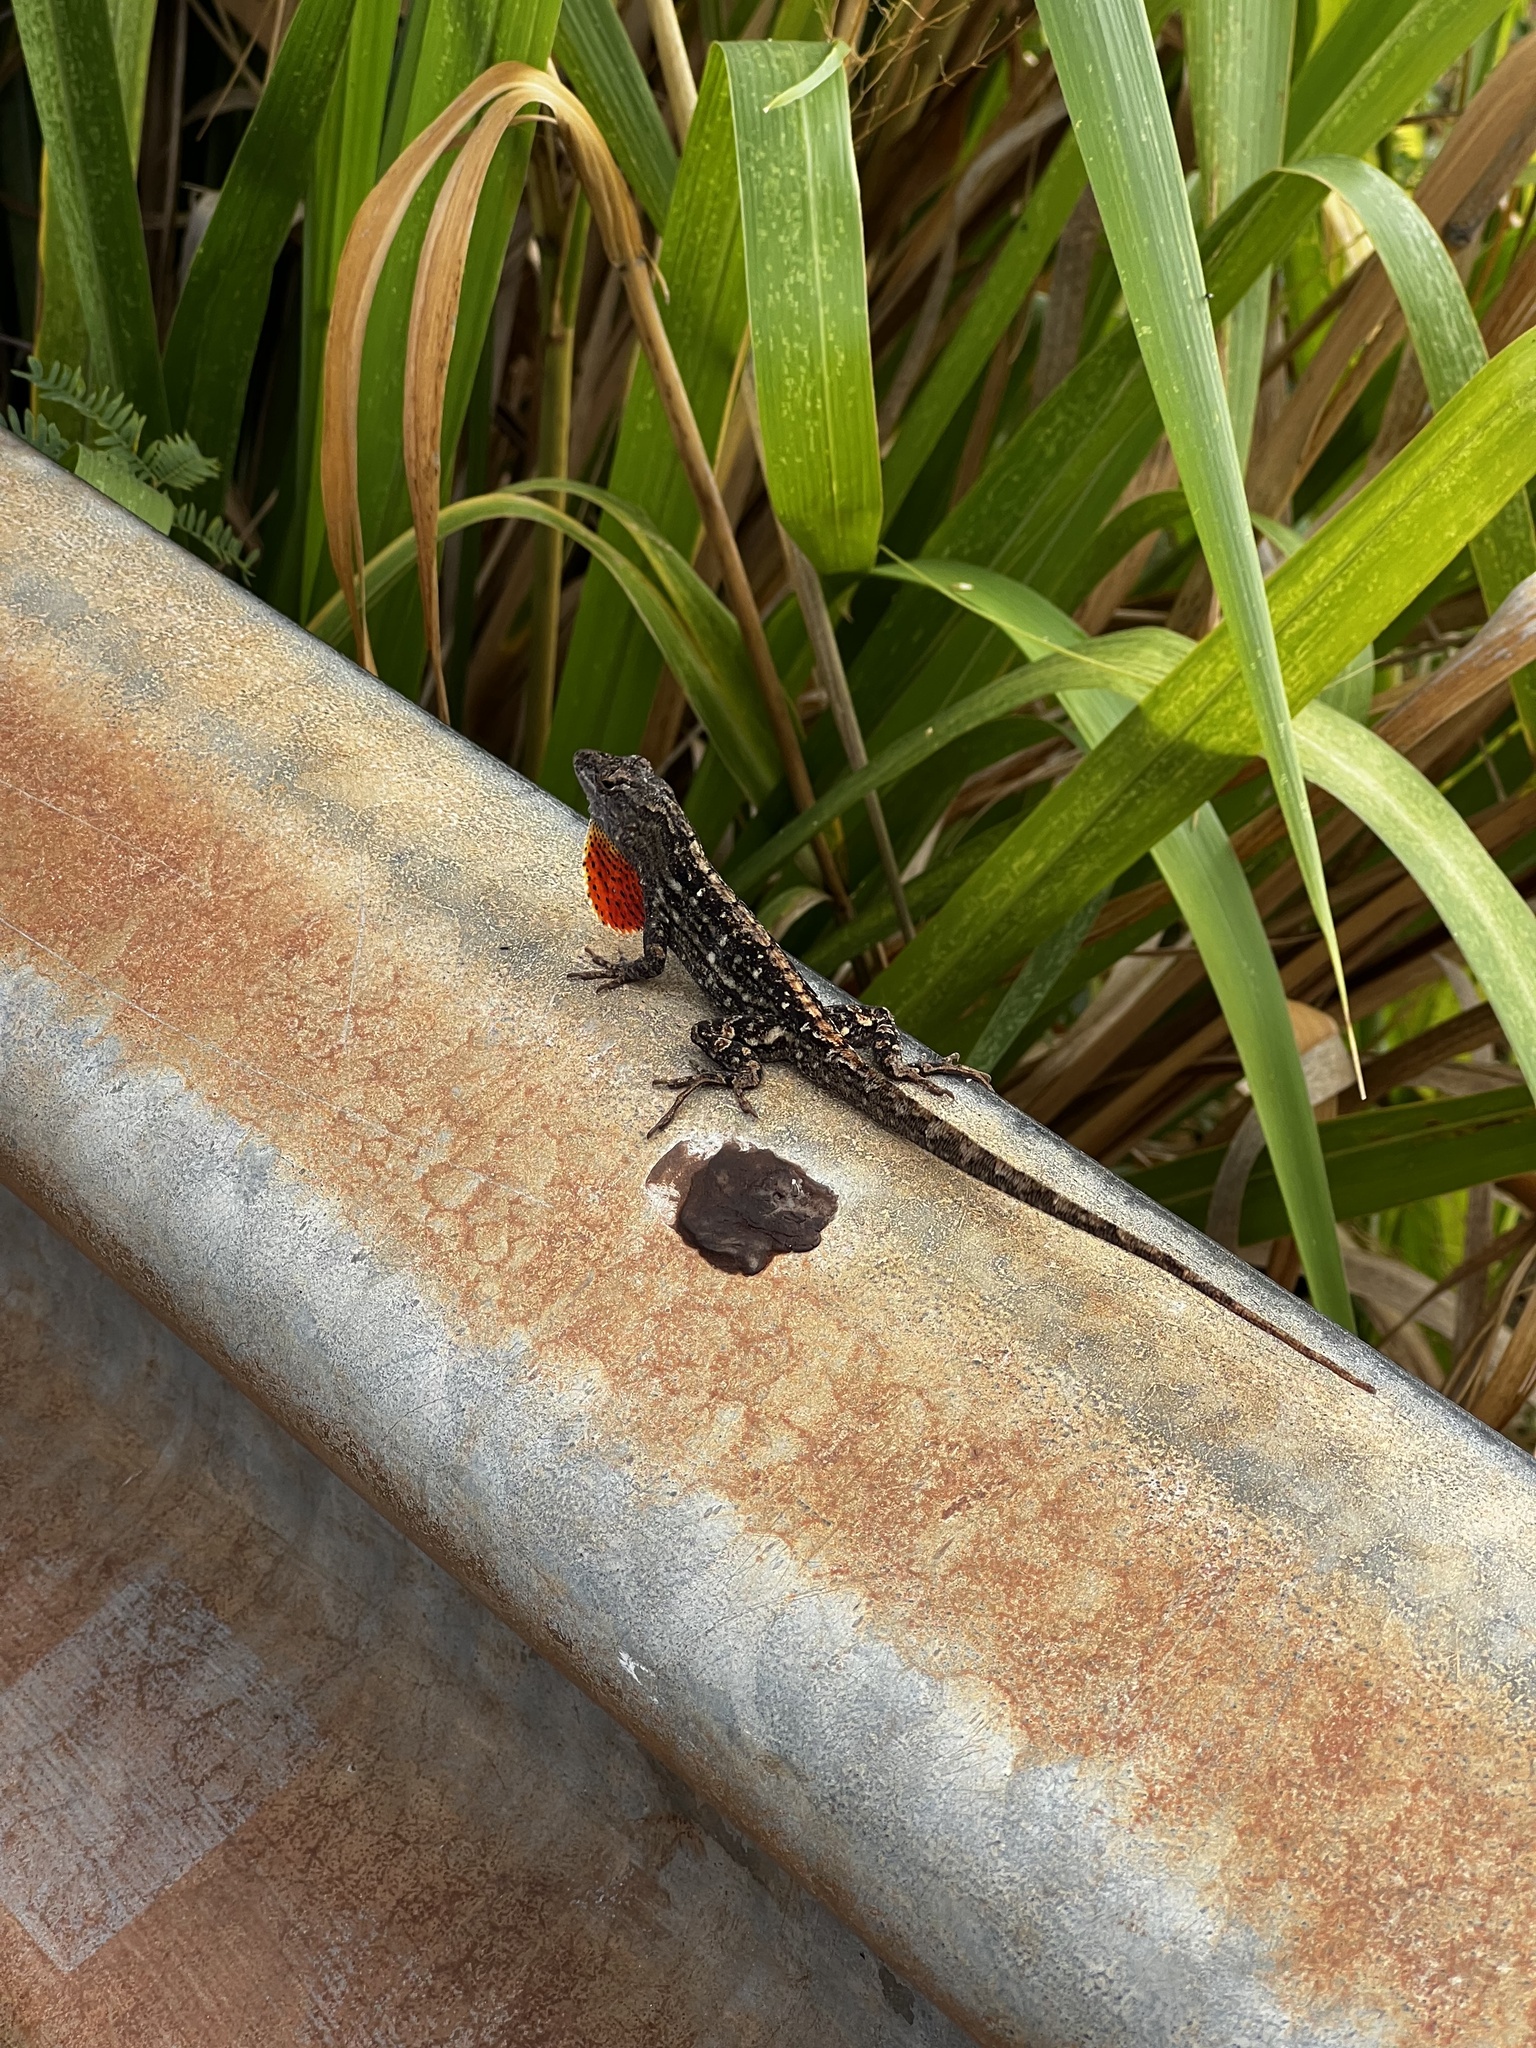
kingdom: Animalia
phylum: Chordata
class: Squamata
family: Dactyloidae
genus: Anolis
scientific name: Anolis sagrei
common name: Brown anole
